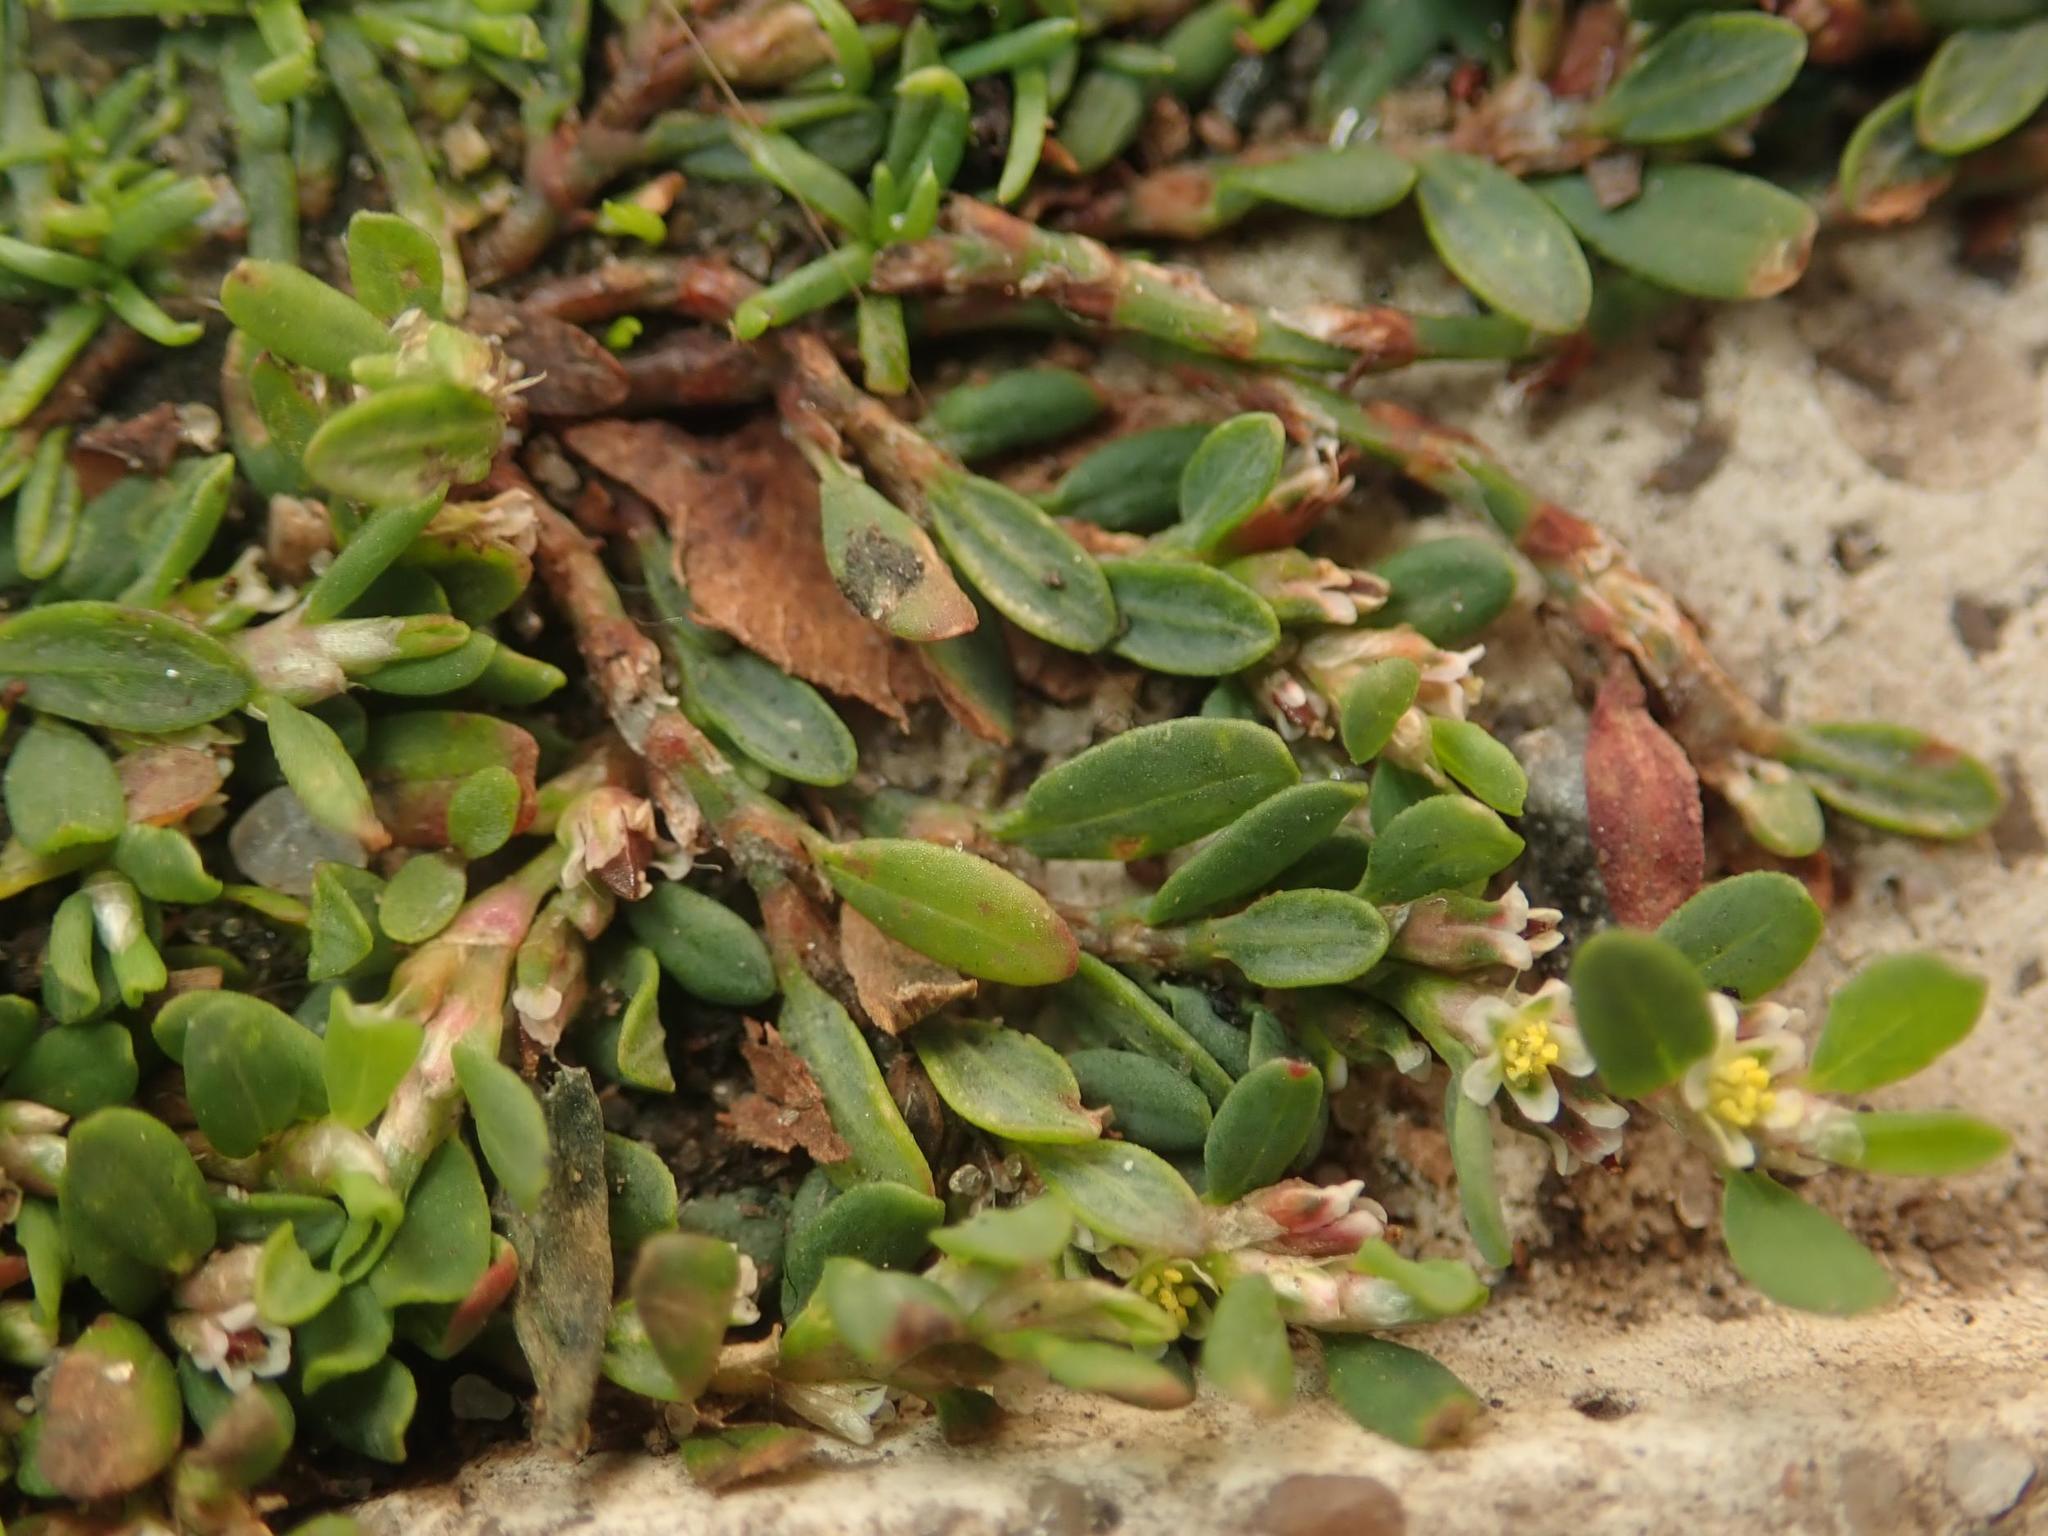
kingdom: Plantae
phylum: Tracheophyta
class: Magnoliopsida
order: Caryophyllales
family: Polygonaceae
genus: Polygonum
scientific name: Polygonum aviculare
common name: Prostrate knotweed
